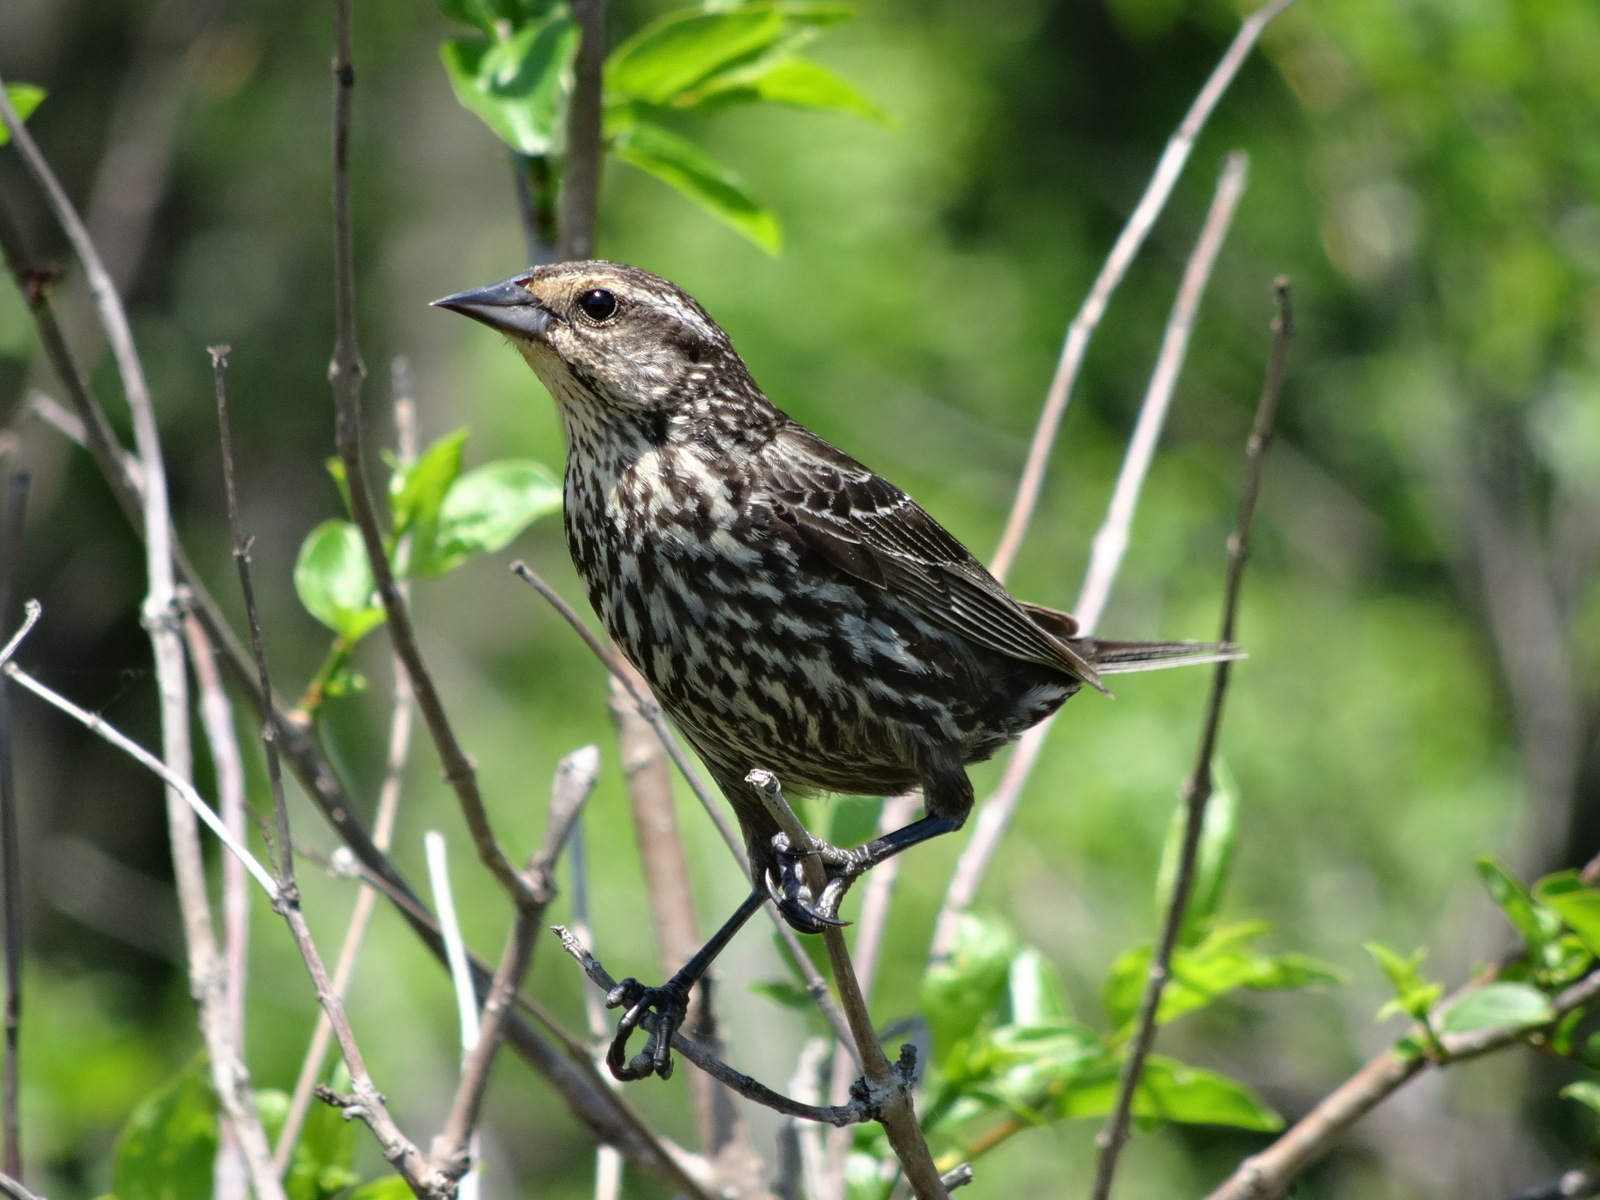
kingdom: Animalia
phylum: Chordata
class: Aves
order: Passeriformes
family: Icteridae
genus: Agelaius
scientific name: Agelaius phoeniceus
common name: Red-winged blackbird
